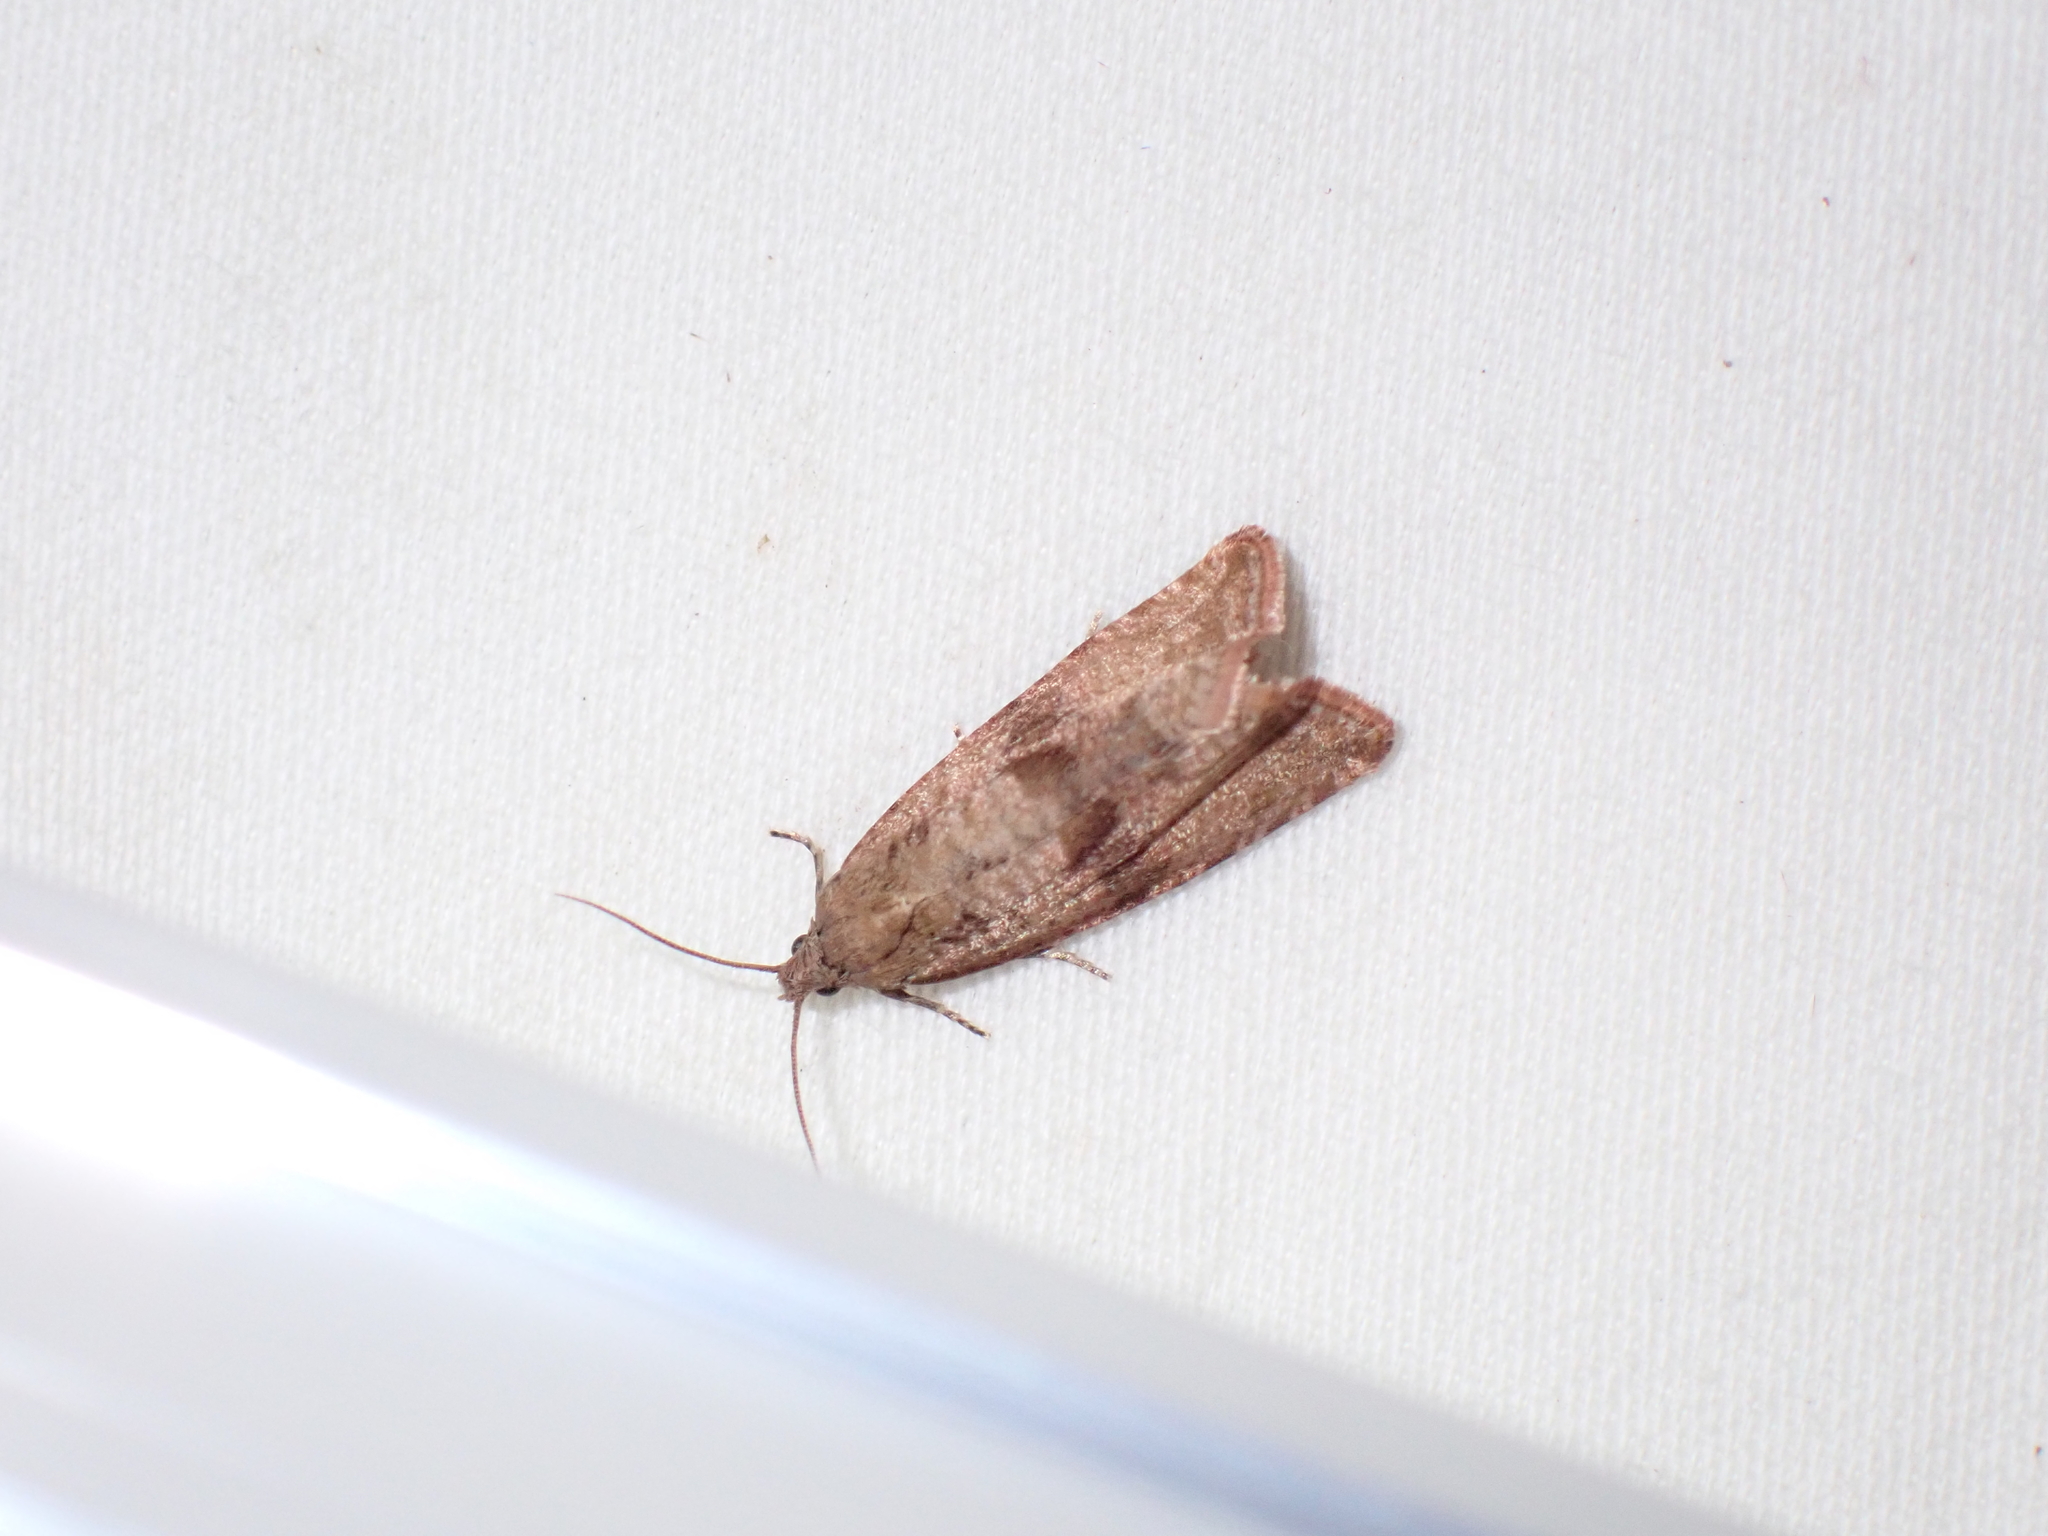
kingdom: Animalia
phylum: Arthropoda
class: Insecta
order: Lepidoptera
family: Tortricidae
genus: Celypha
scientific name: Celypha striana
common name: Barred marble
